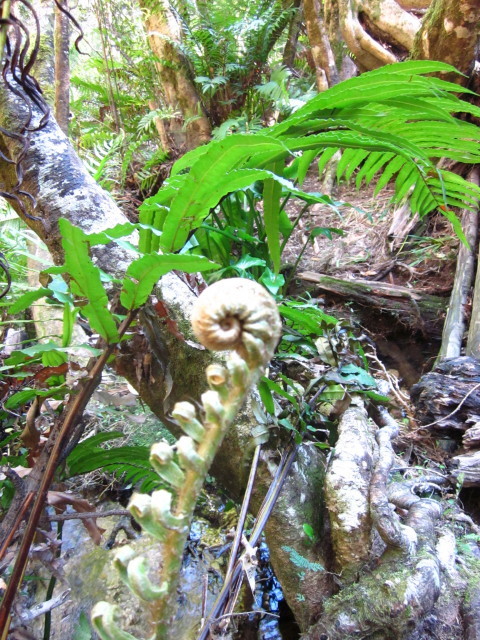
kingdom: Plantae
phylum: Tracheophyta
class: Polypodiopsida
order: Polypodiales
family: Blechnaceae
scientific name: Blechnaceae
